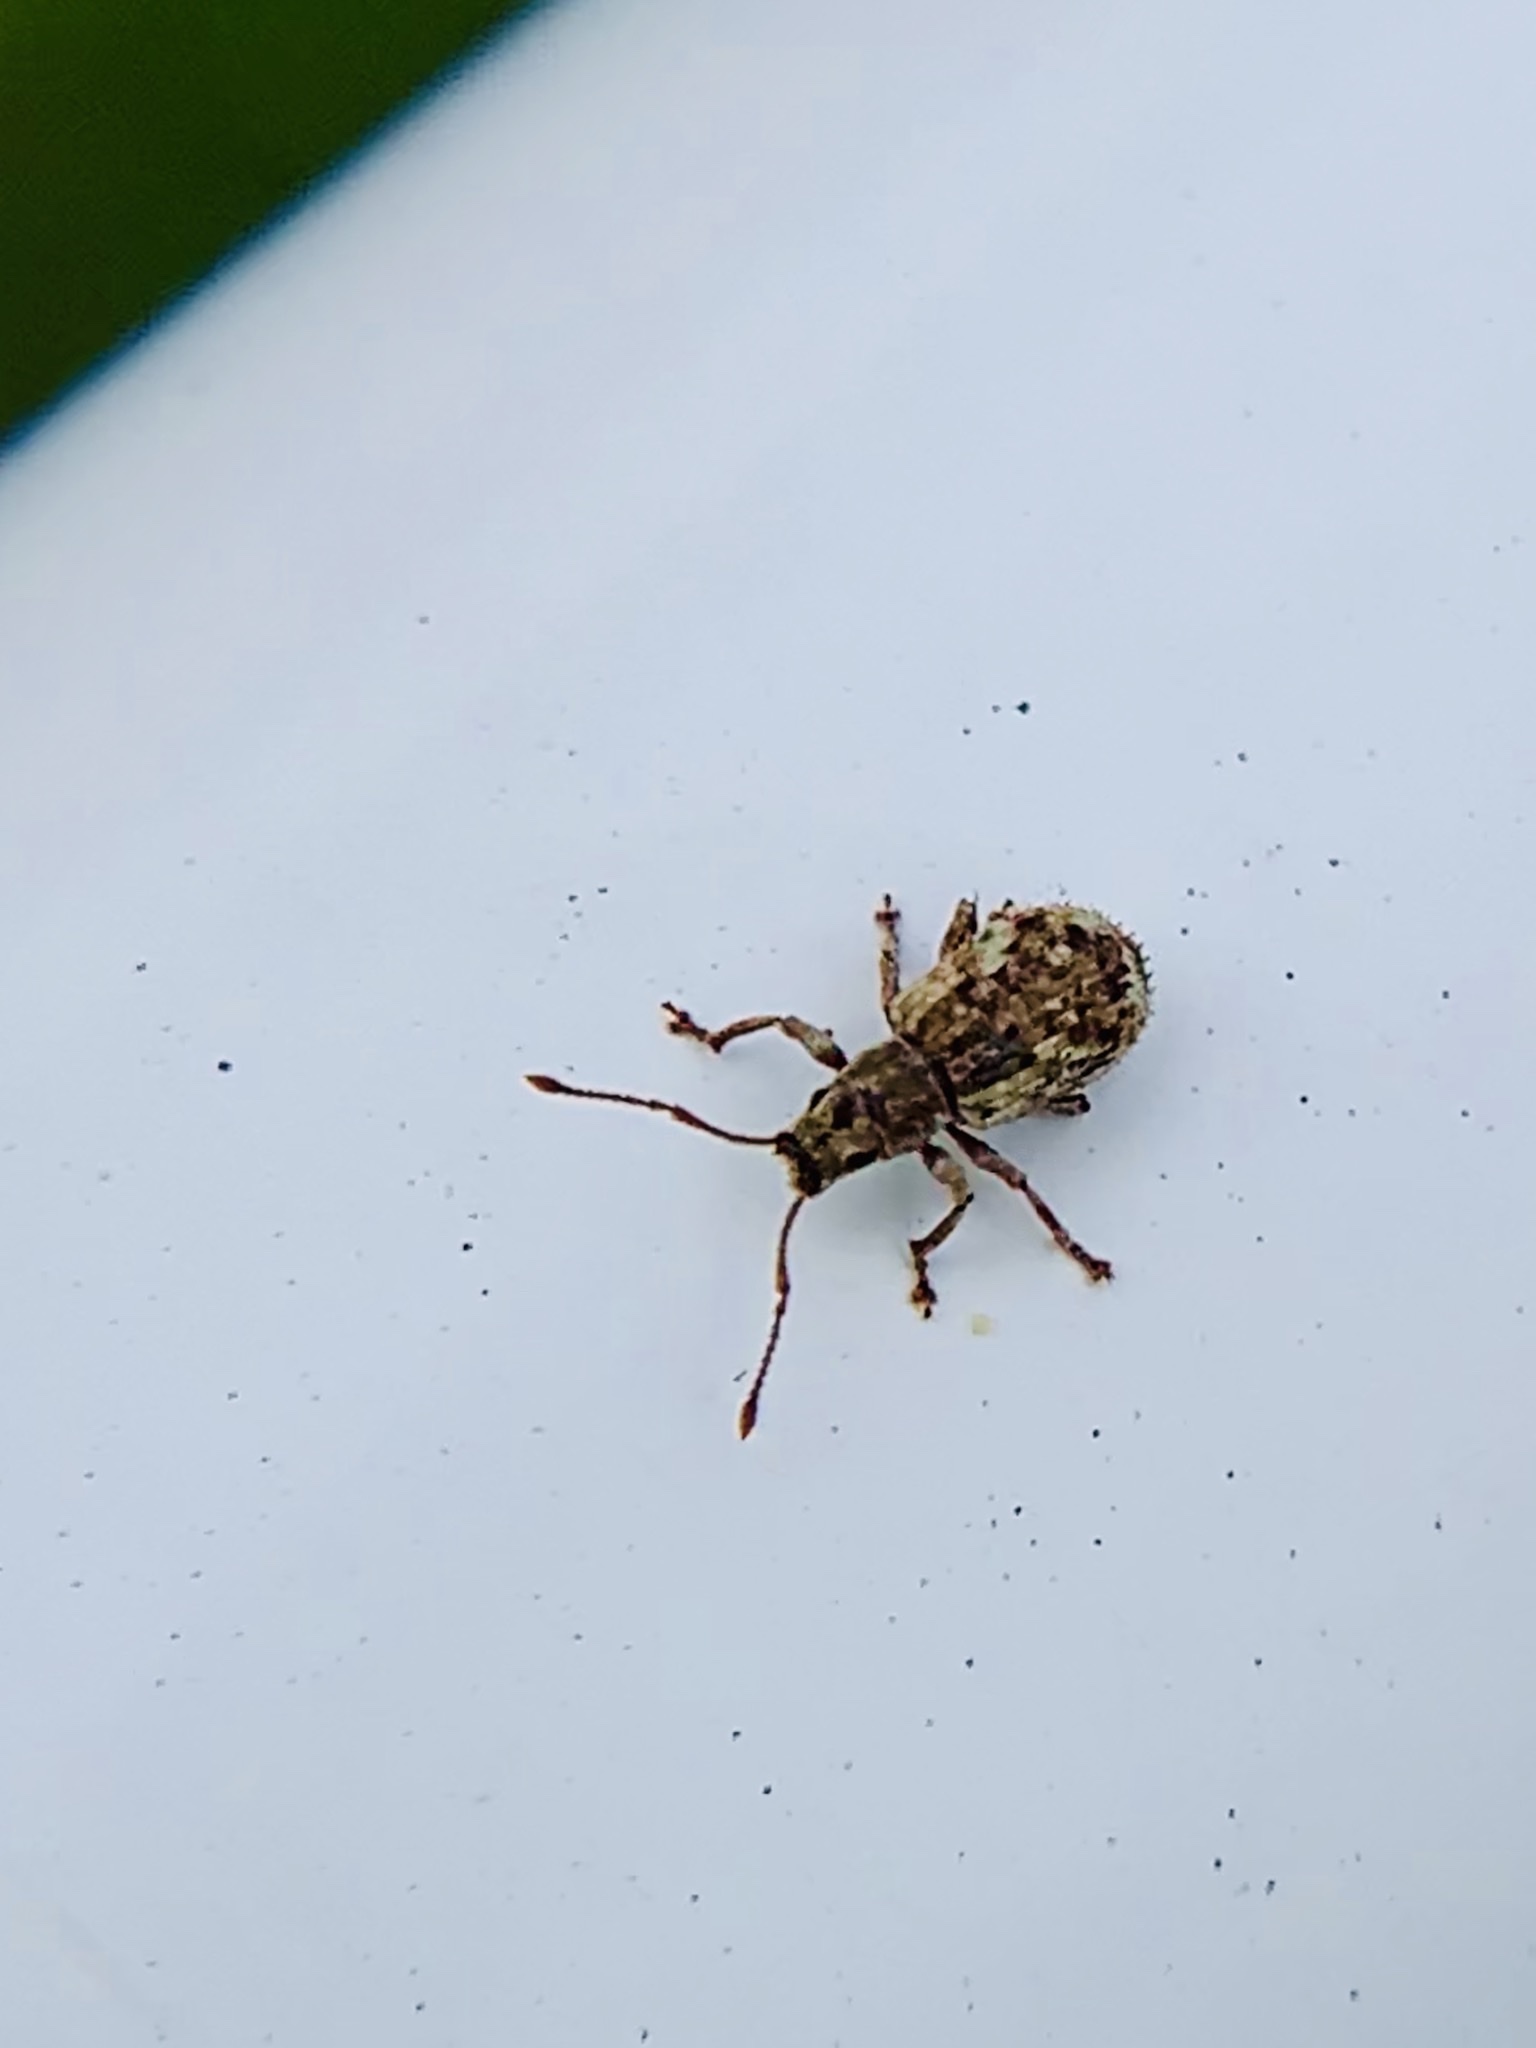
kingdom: Animalia
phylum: Arthropoda
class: Insecta
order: Coleoptera
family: Curculionidae
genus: Pseudoedophrys
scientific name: Pseudoedophrys hilleri
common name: Weevil
